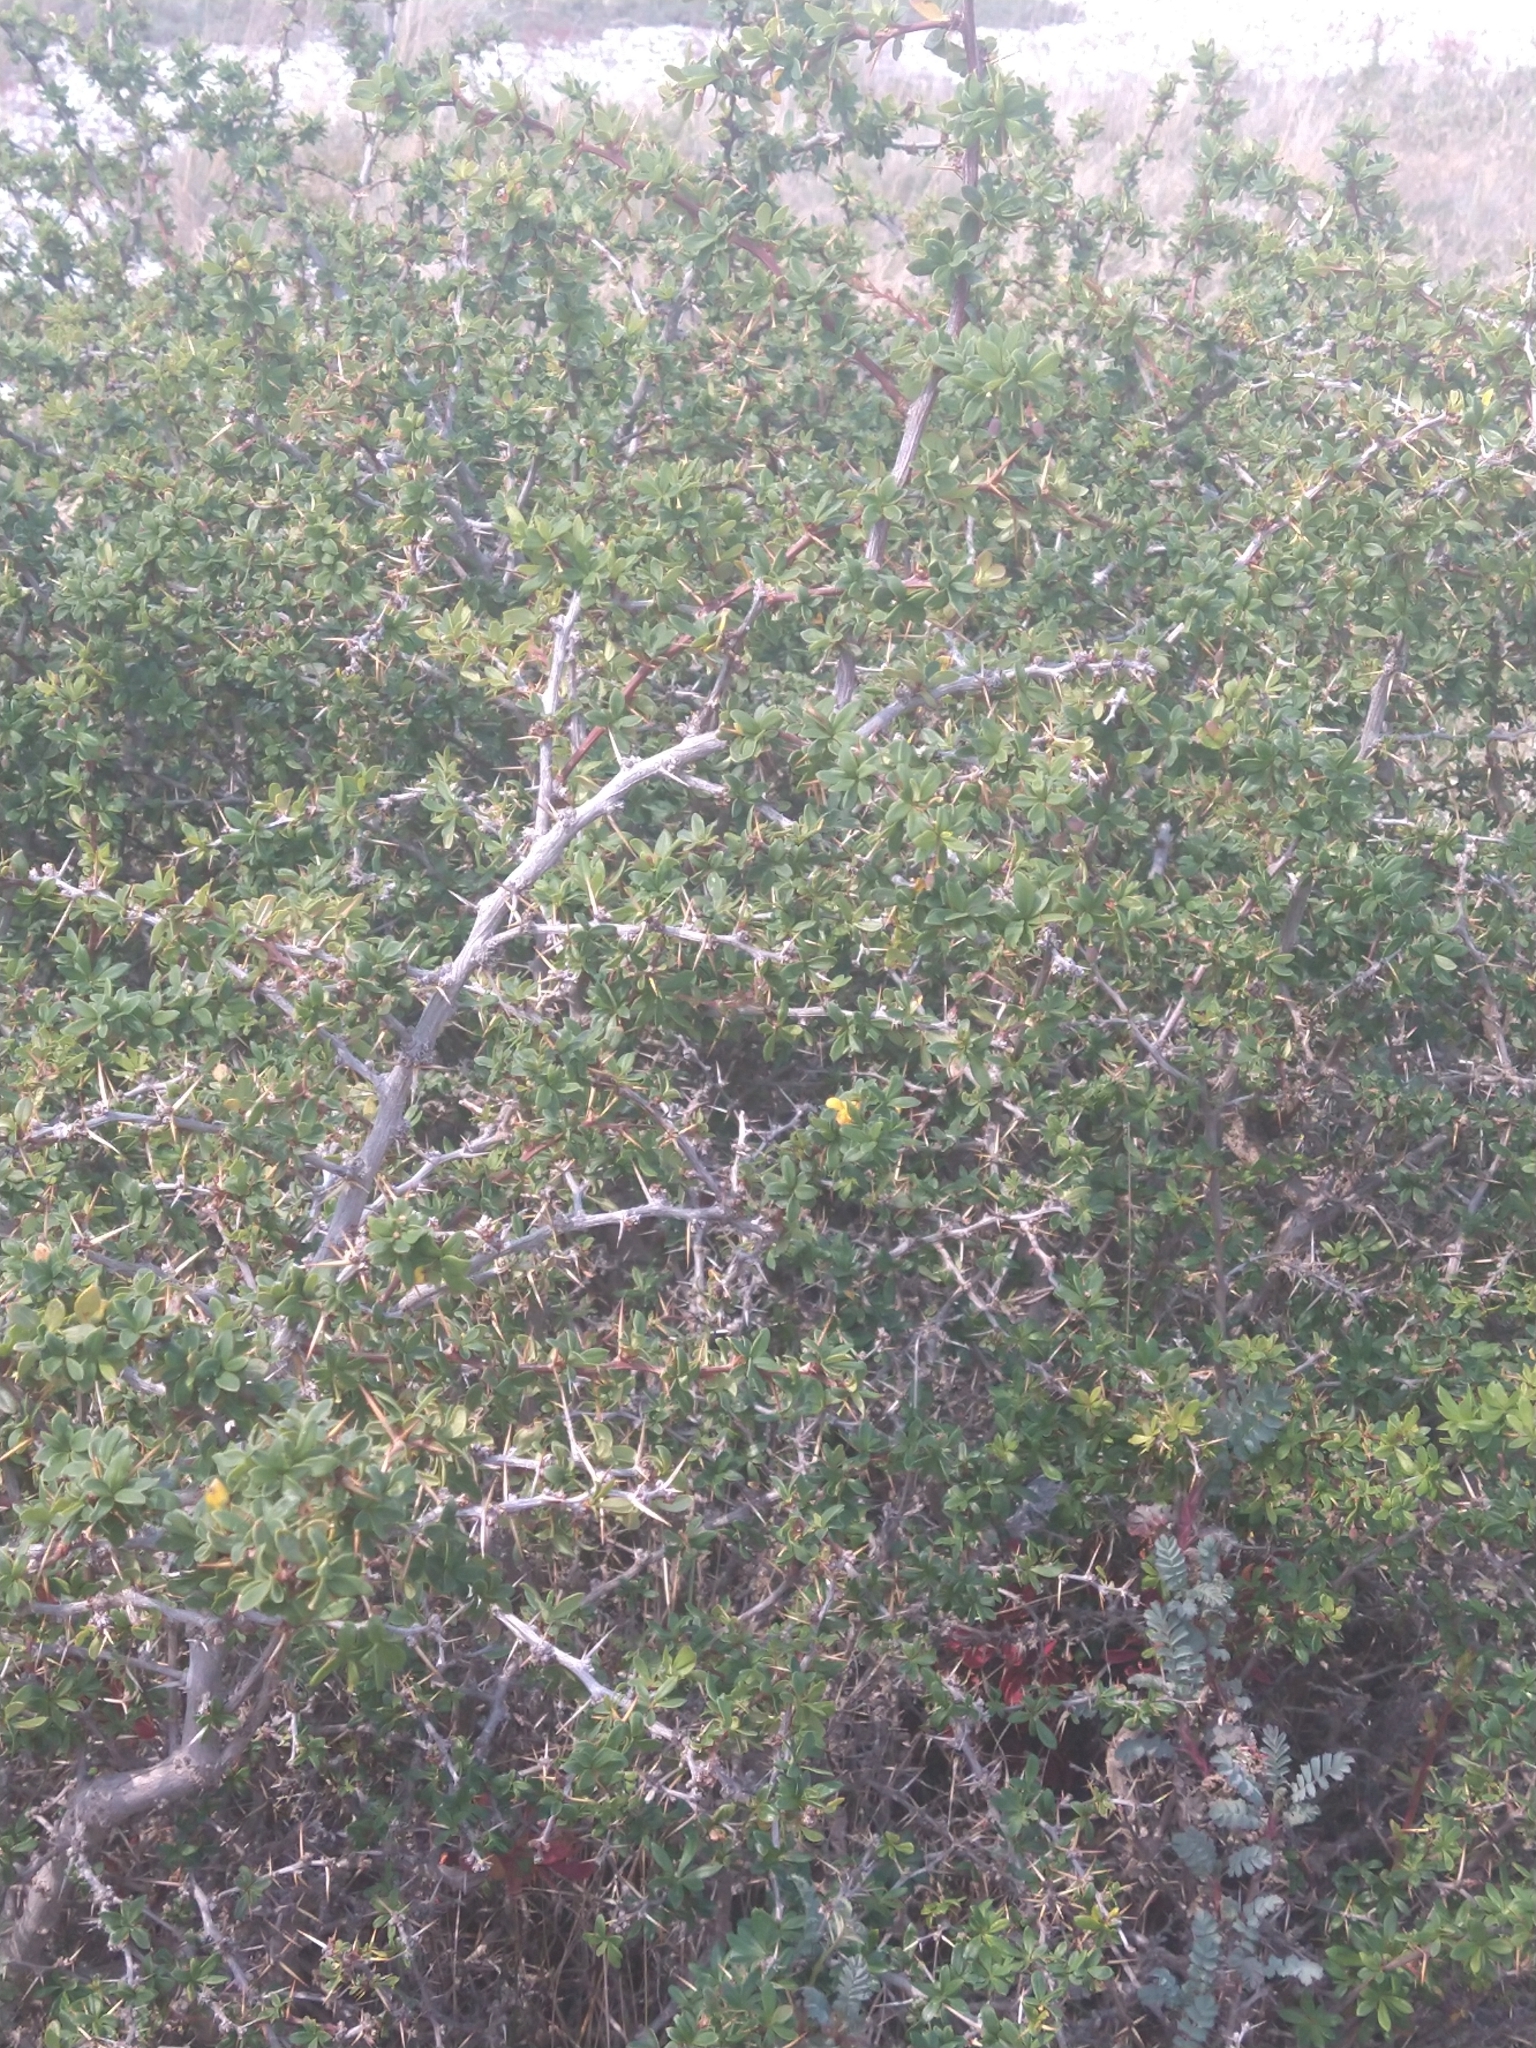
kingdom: Plantae
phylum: Tracheophyta
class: Magnoliopsida
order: Ranunculales
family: Berberidaceae
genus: Berberis
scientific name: Berberis microphylla
